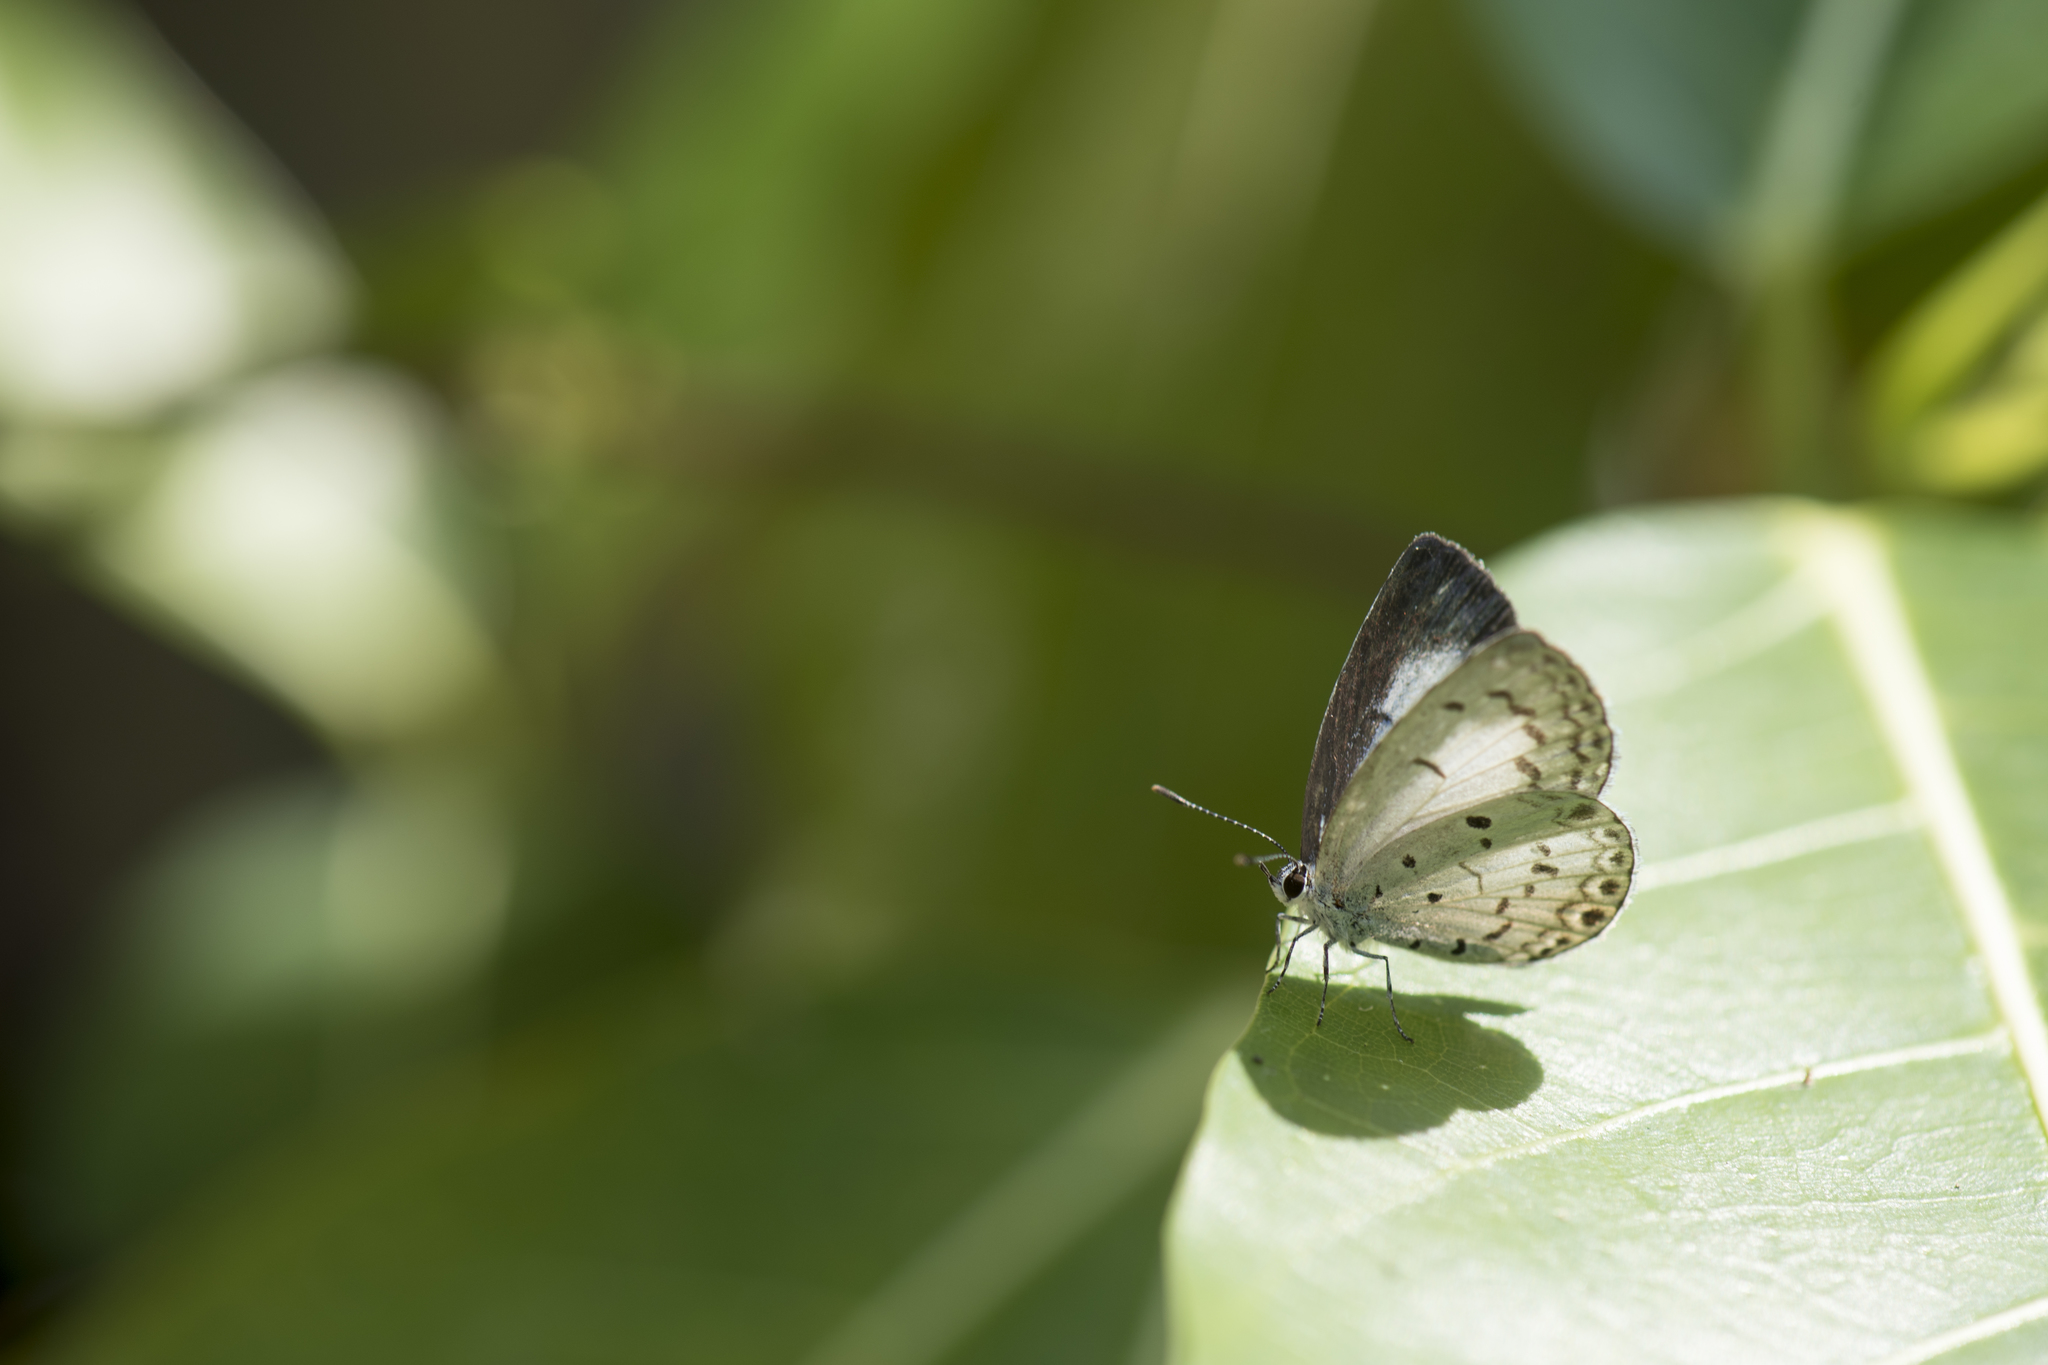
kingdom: Animalia
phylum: Arthropoda
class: Insecta
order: Lepidoptera
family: Lycaenidae
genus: Acytolepis
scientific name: Acytolepis puspa
